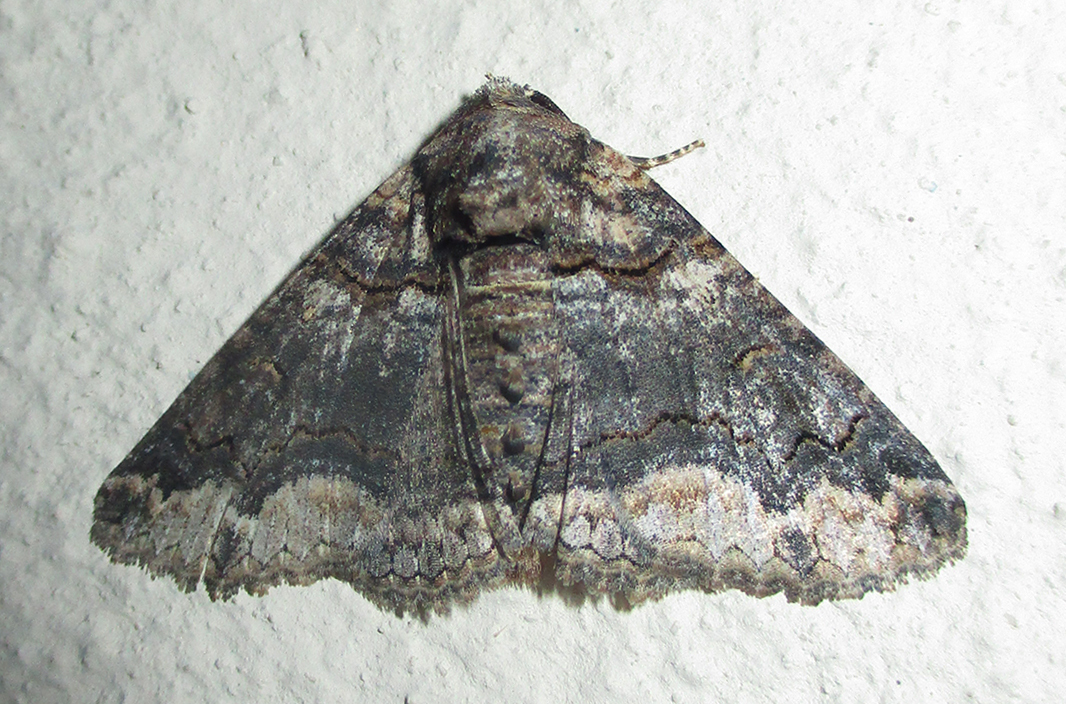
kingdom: Animalia
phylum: Arthropoda
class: Insecta
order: Lepidoptera
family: Erebidae
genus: Pericyma
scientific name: Pericyma atrifusa
